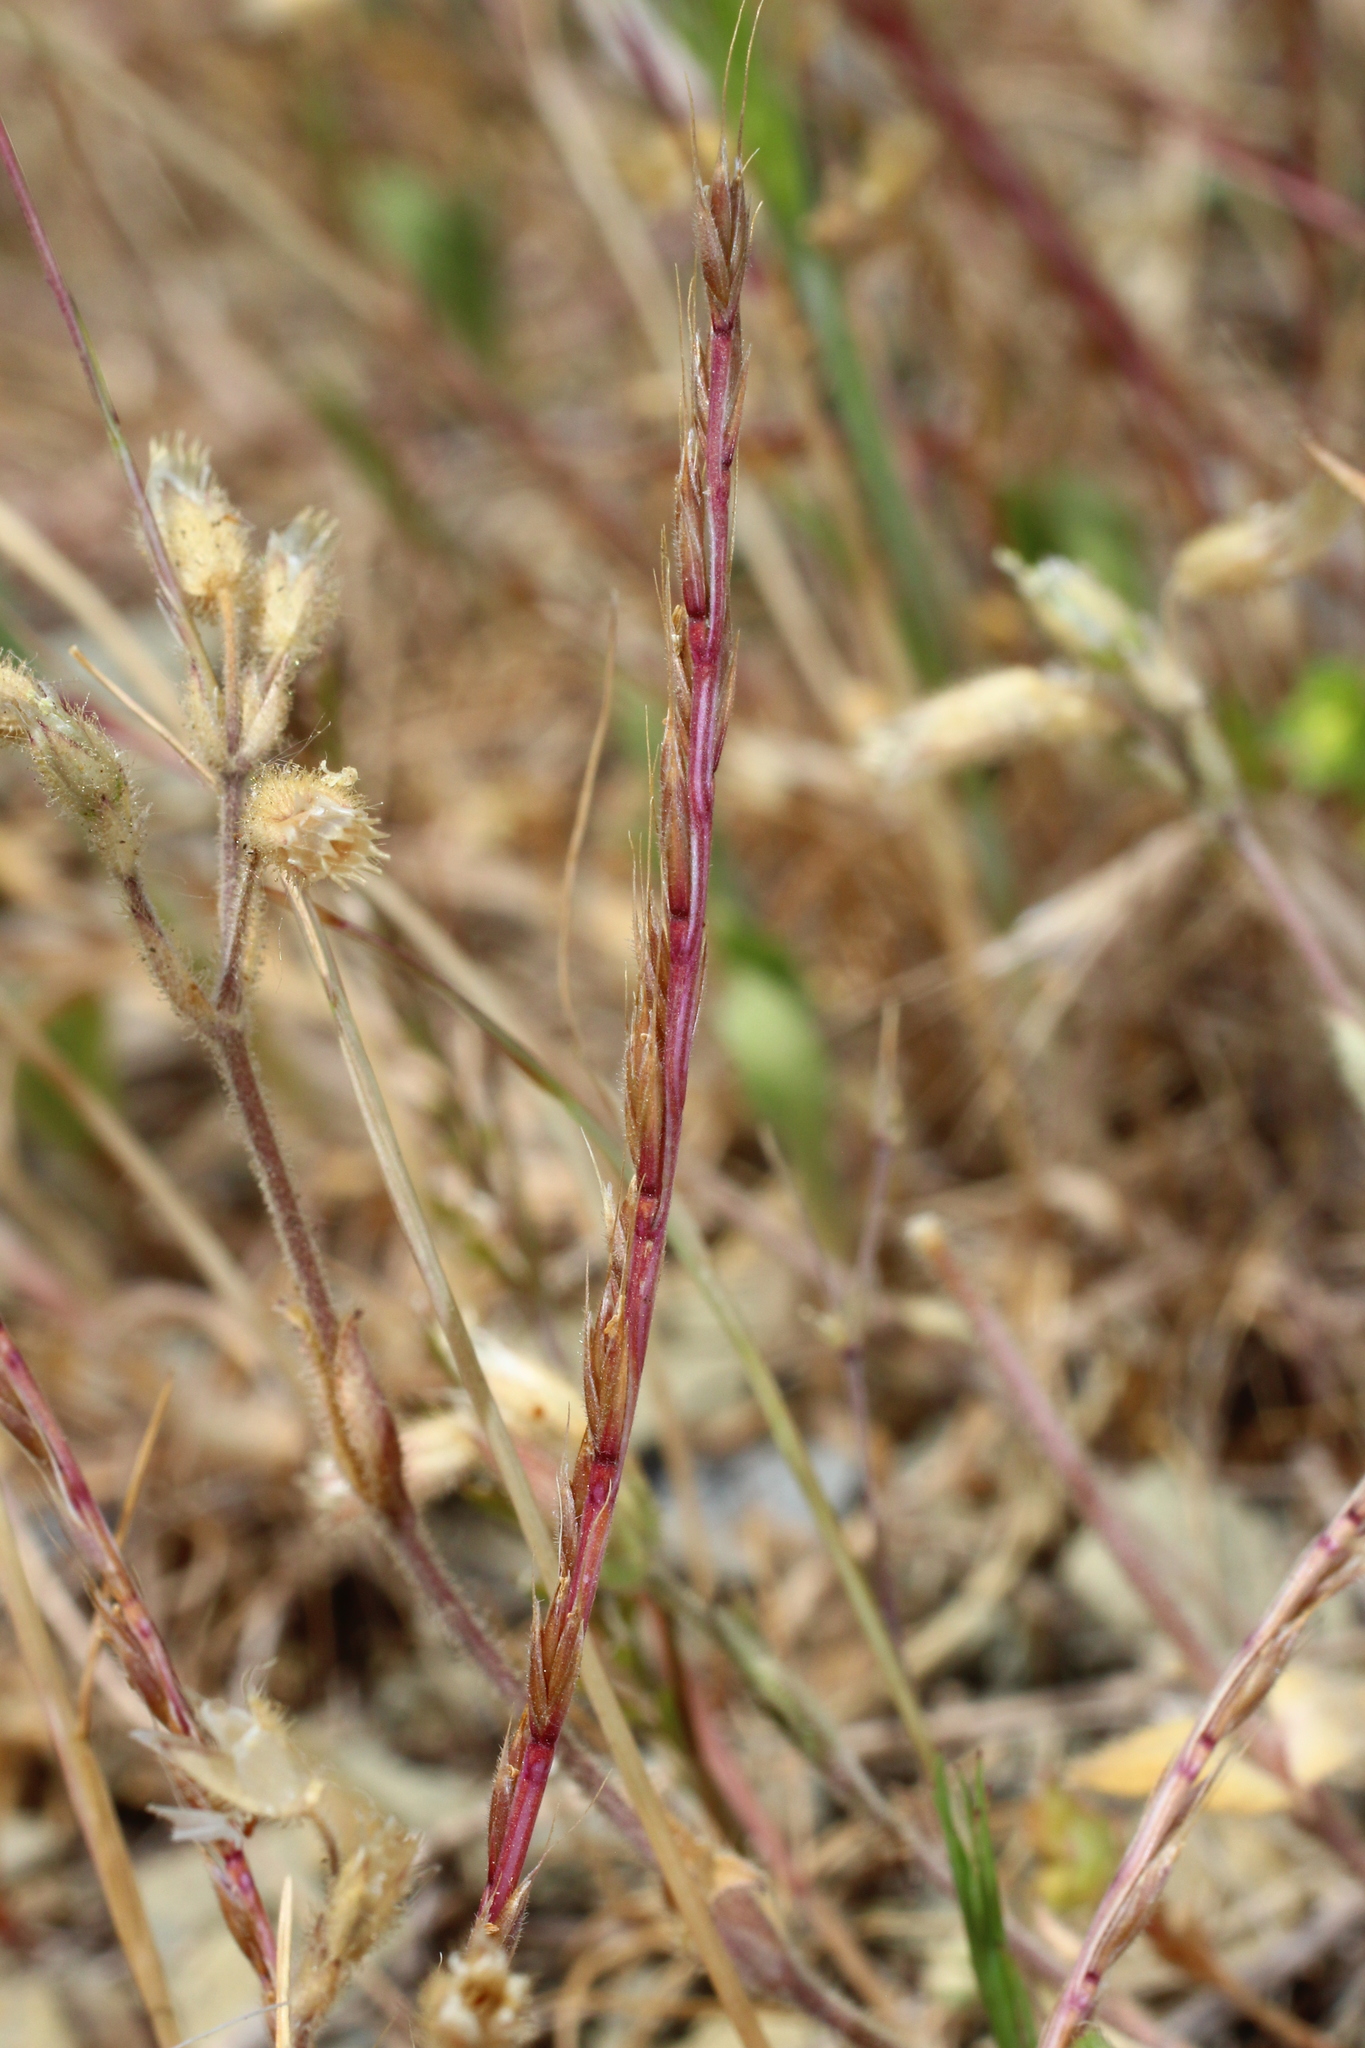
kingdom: Plantae
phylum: Tracheophyta
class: Liliopsida
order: Poales
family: Poaceae
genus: Festuca
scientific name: Festuca maritima
